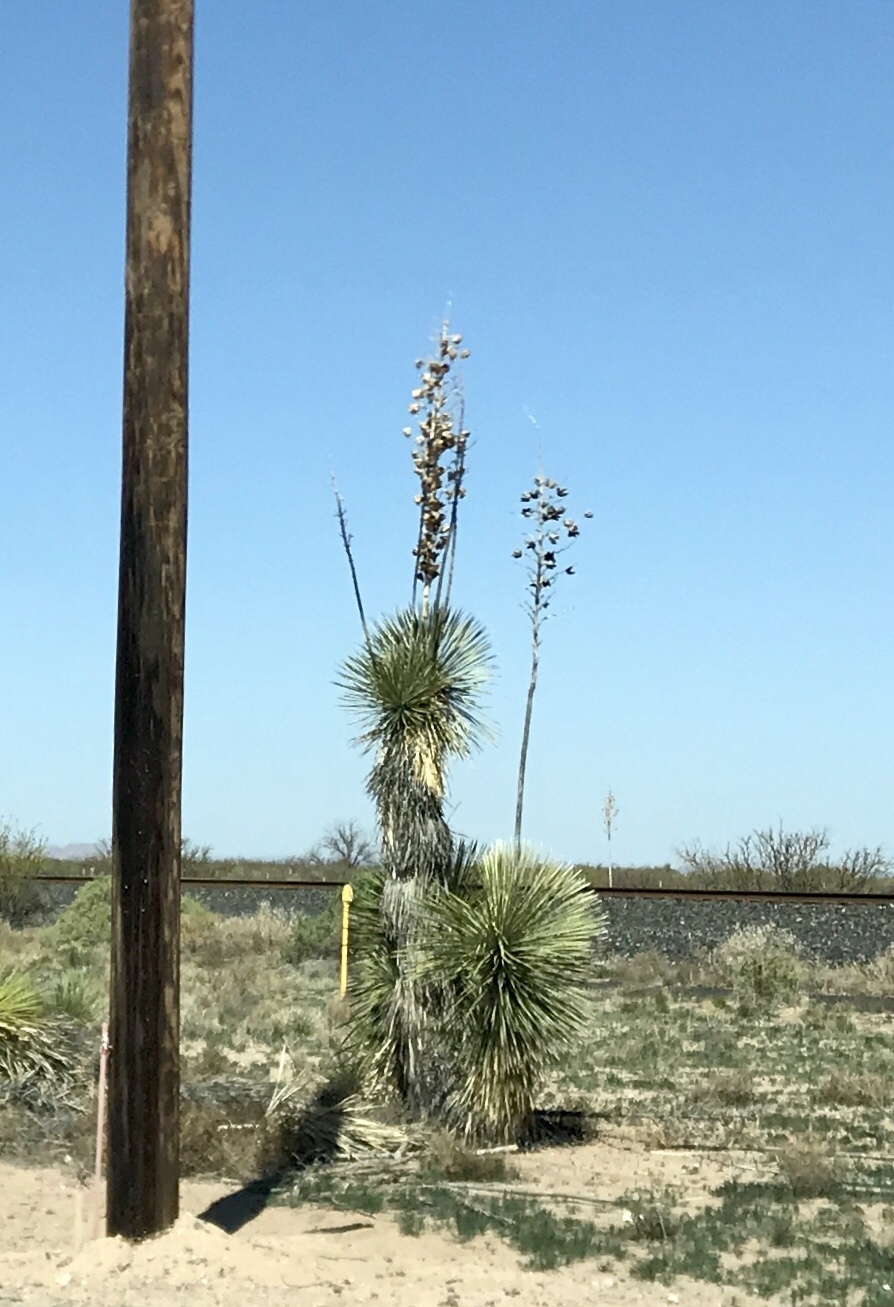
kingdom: Plantae
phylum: Tracheophyta
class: Liliopsida
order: Asparagales
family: Asparagaceae
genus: Yucca
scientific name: Yucca elata
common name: Palmella
